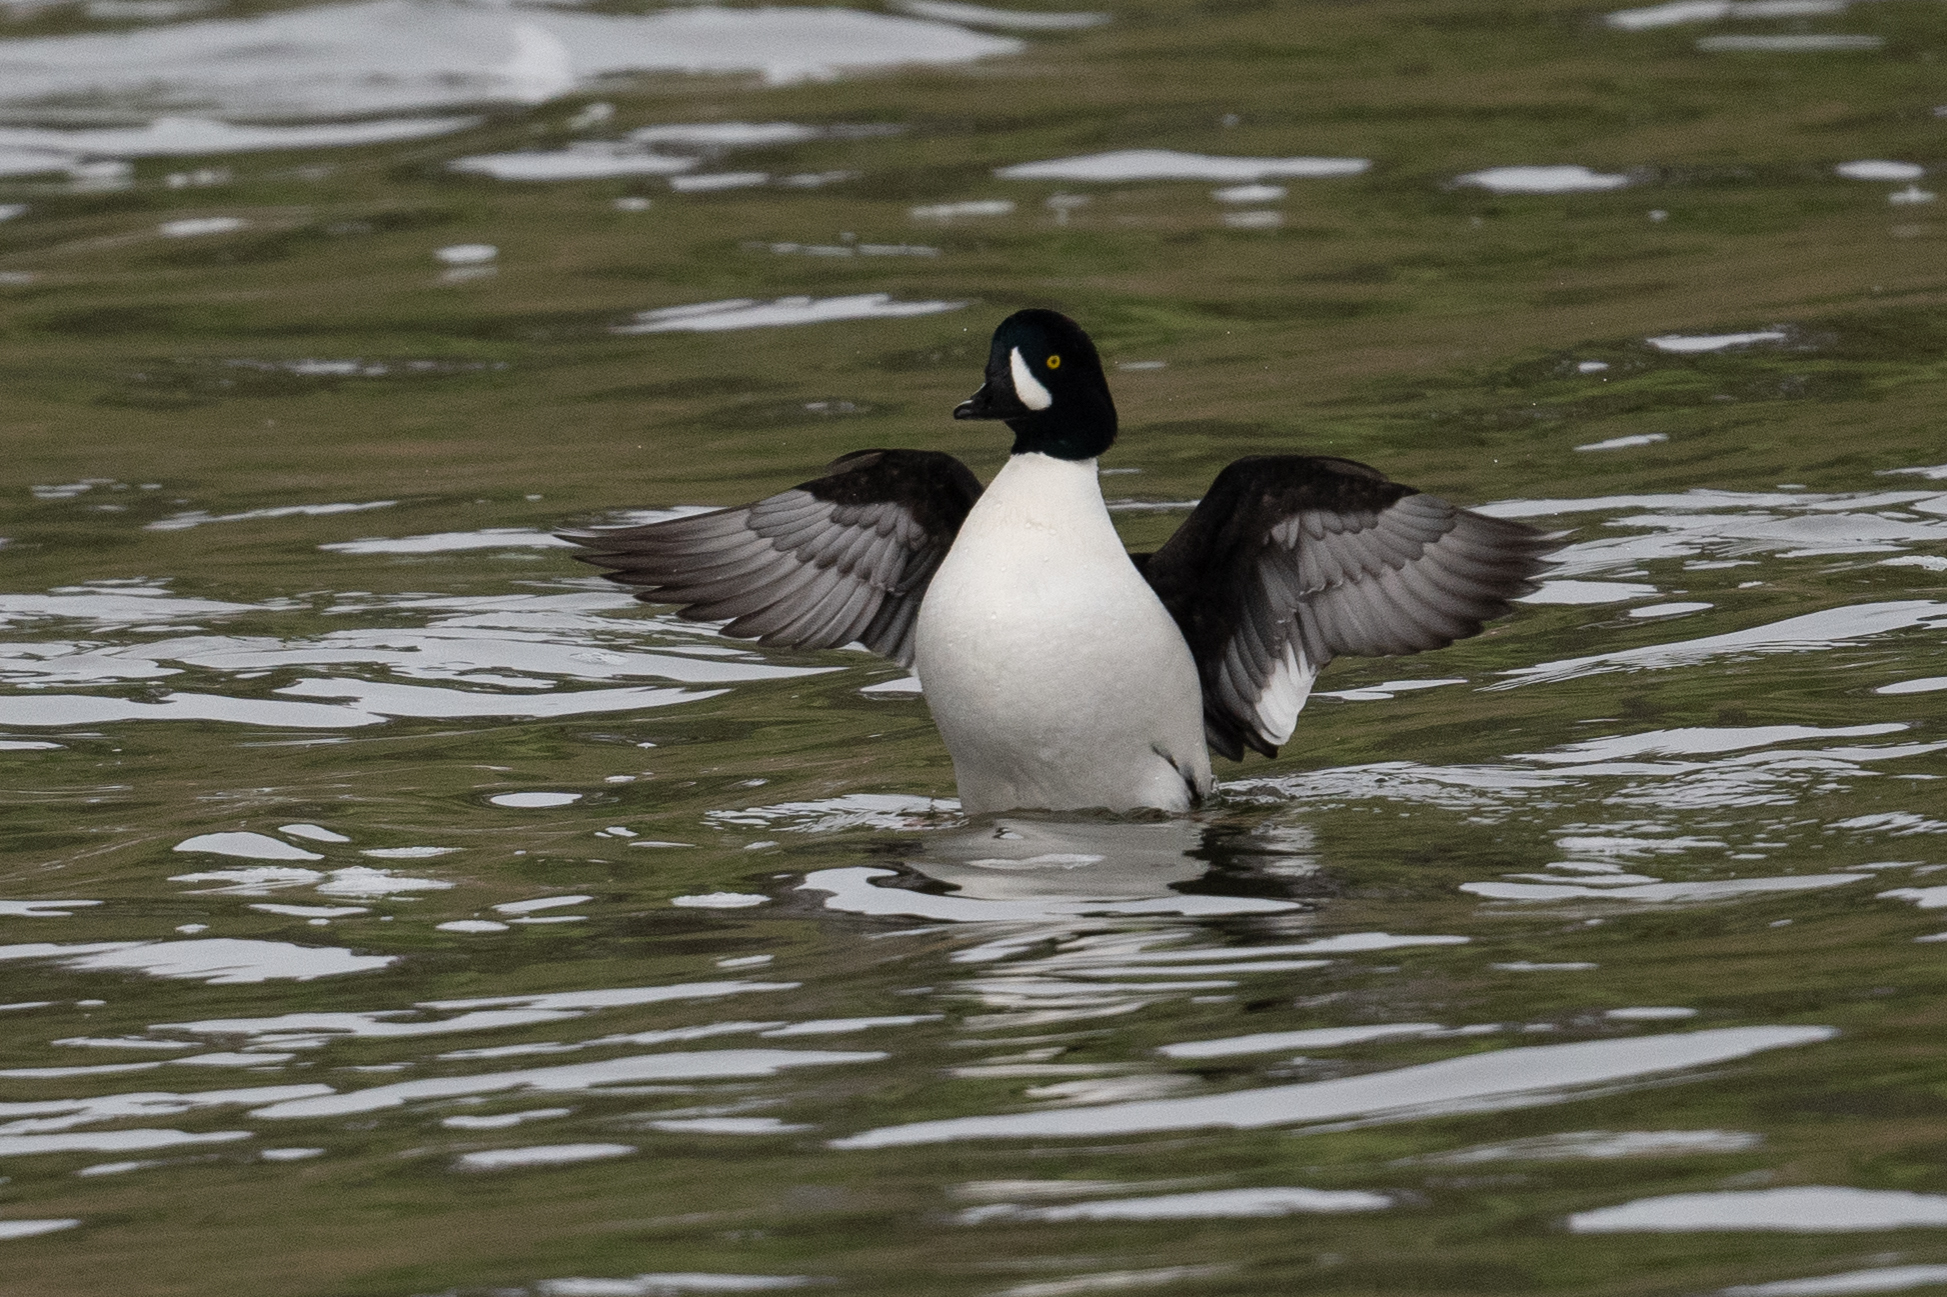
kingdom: Animalia
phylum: Chordata
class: Aves
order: Anseriformes
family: Anatidae
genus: Bucephala
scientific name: Bucephala islandica
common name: Barrow's goldeneye
